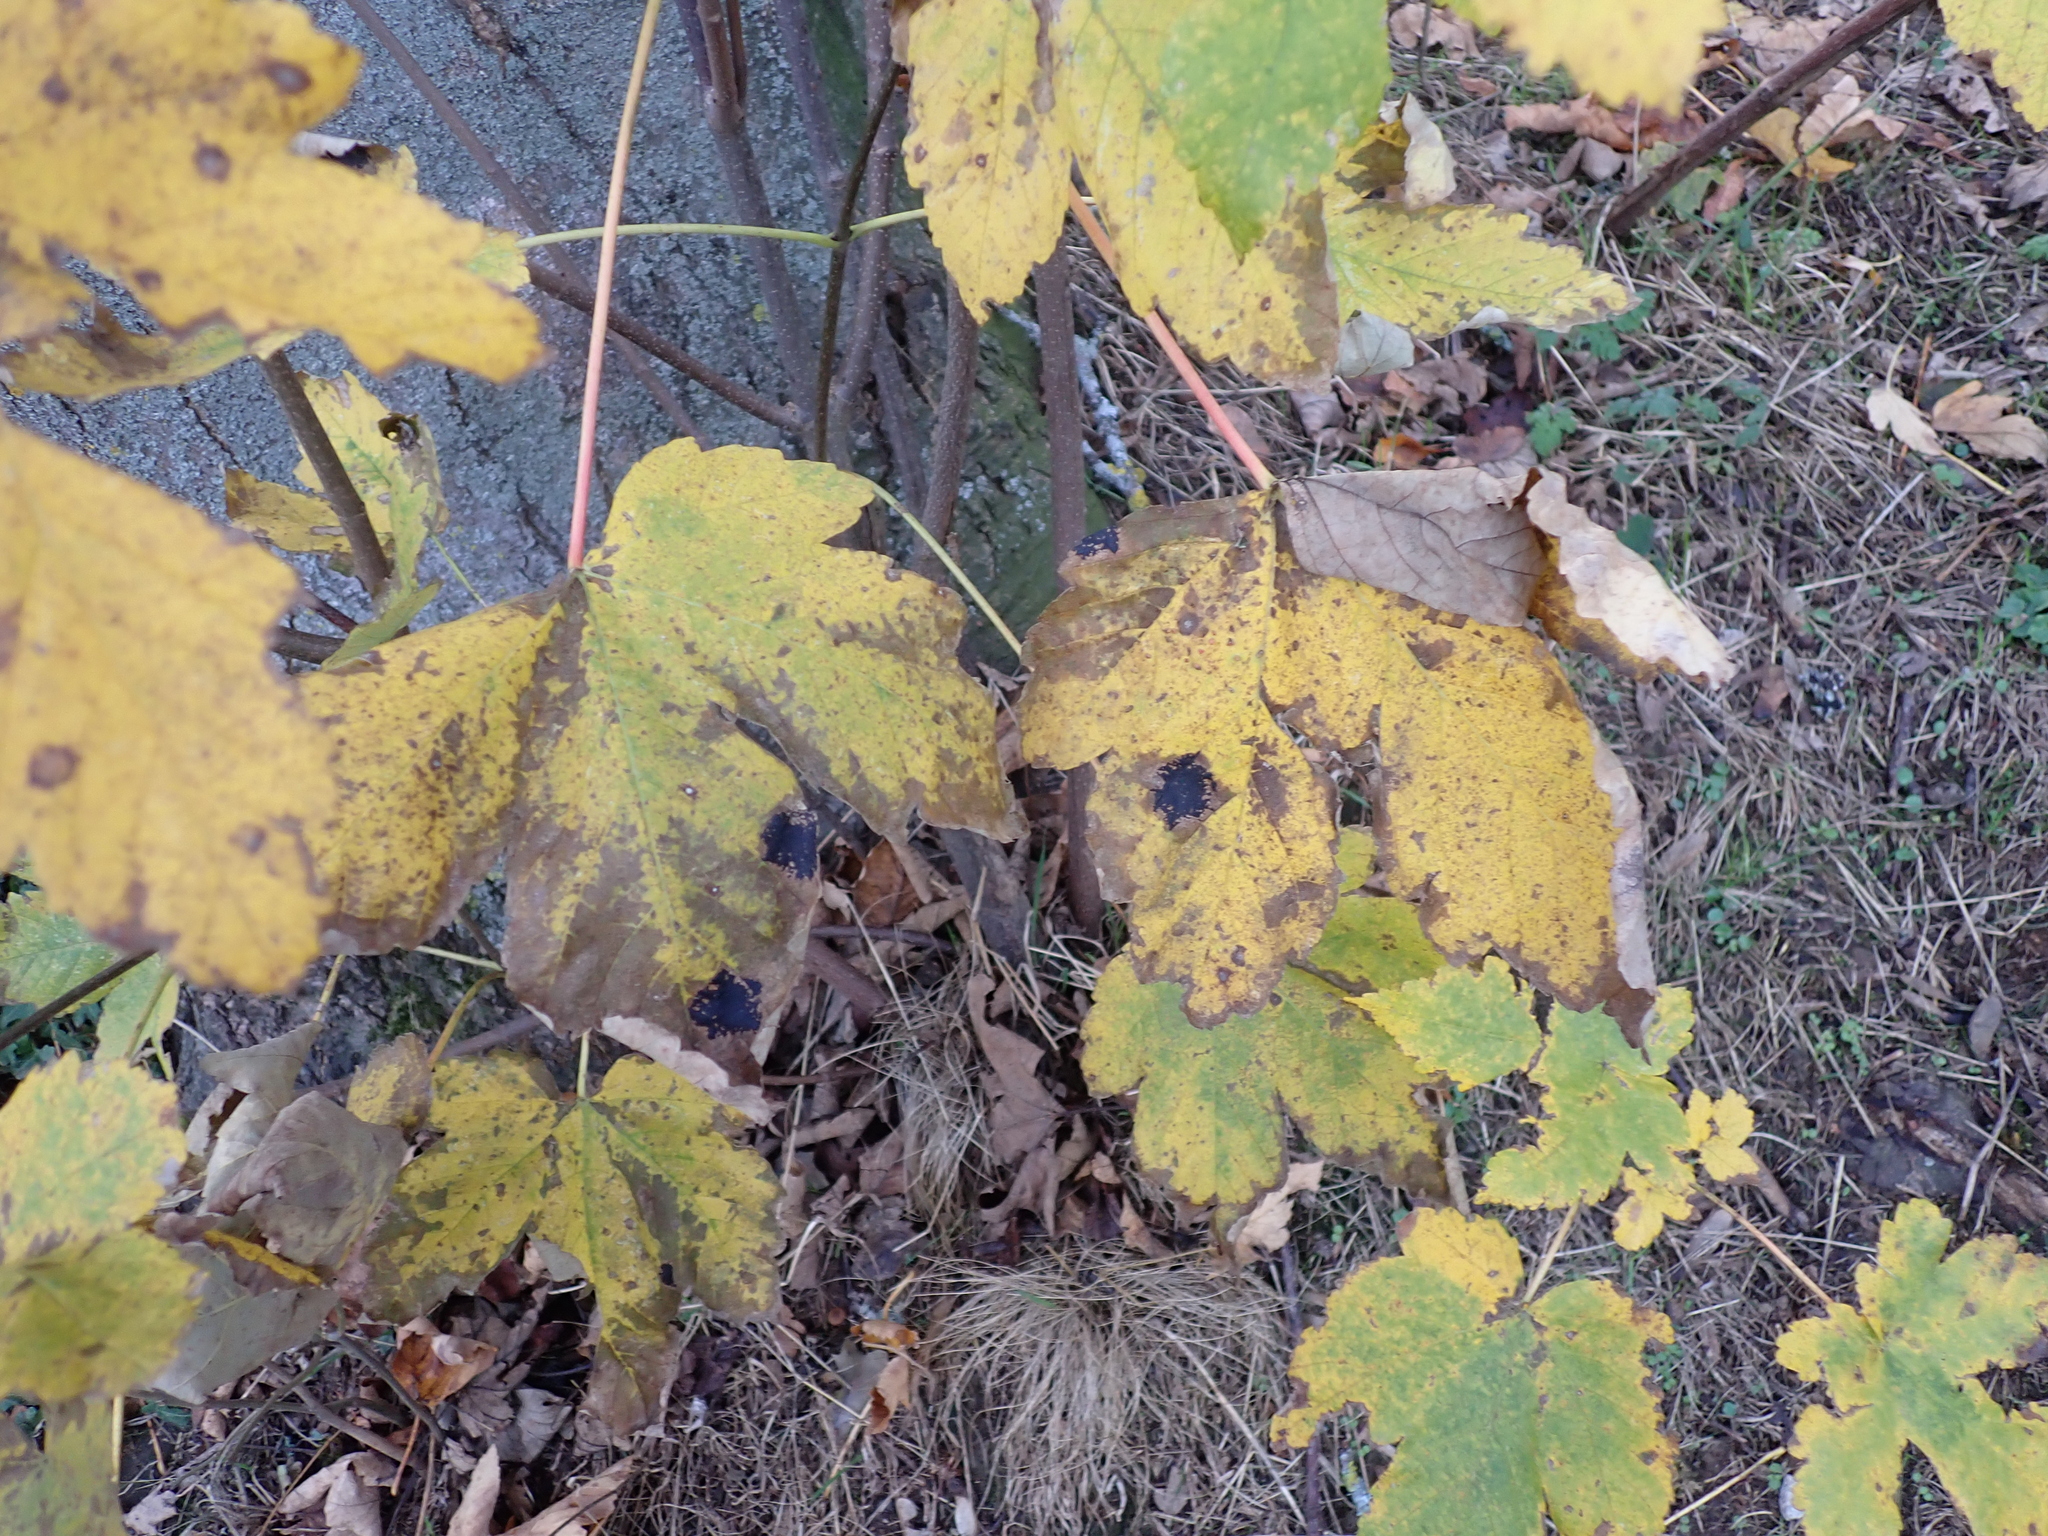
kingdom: Fungi
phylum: Ascomycota
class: Leotiomycetes
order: Rhytismatales
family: Rhytismataceae
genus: Rhytisma
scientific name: Rhytisma acerinum
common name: European tar spot
